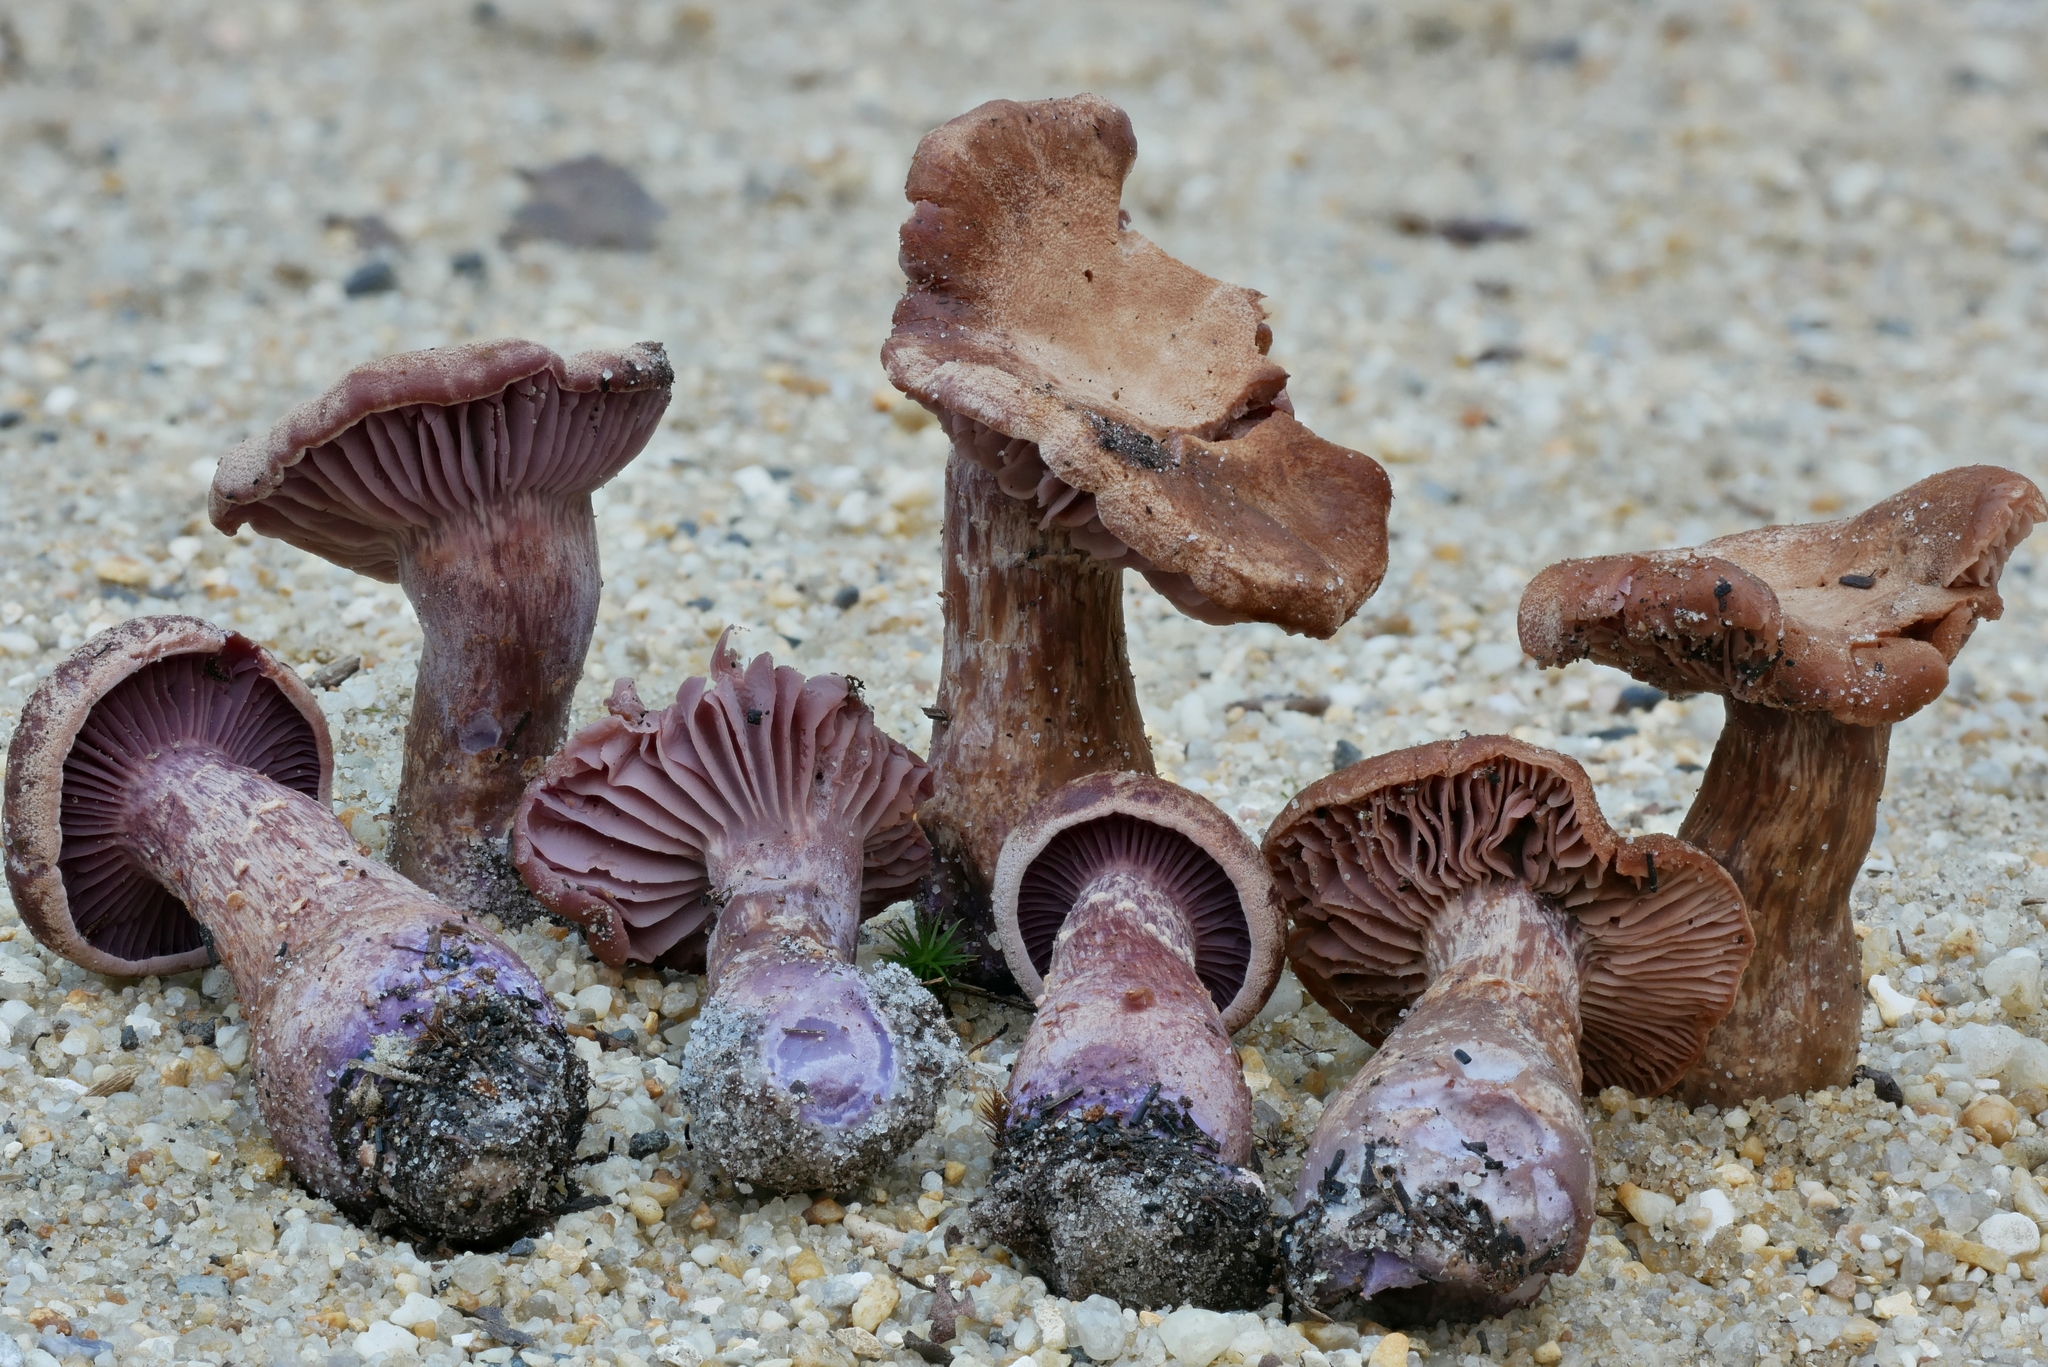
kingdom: Fungi
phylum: Basidiomycota
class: Agaricomycetes
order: Agaricales
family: Hydnangiaceae
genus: Laccaria
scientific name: Laccaria trullissata
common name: Sandy laccaria
